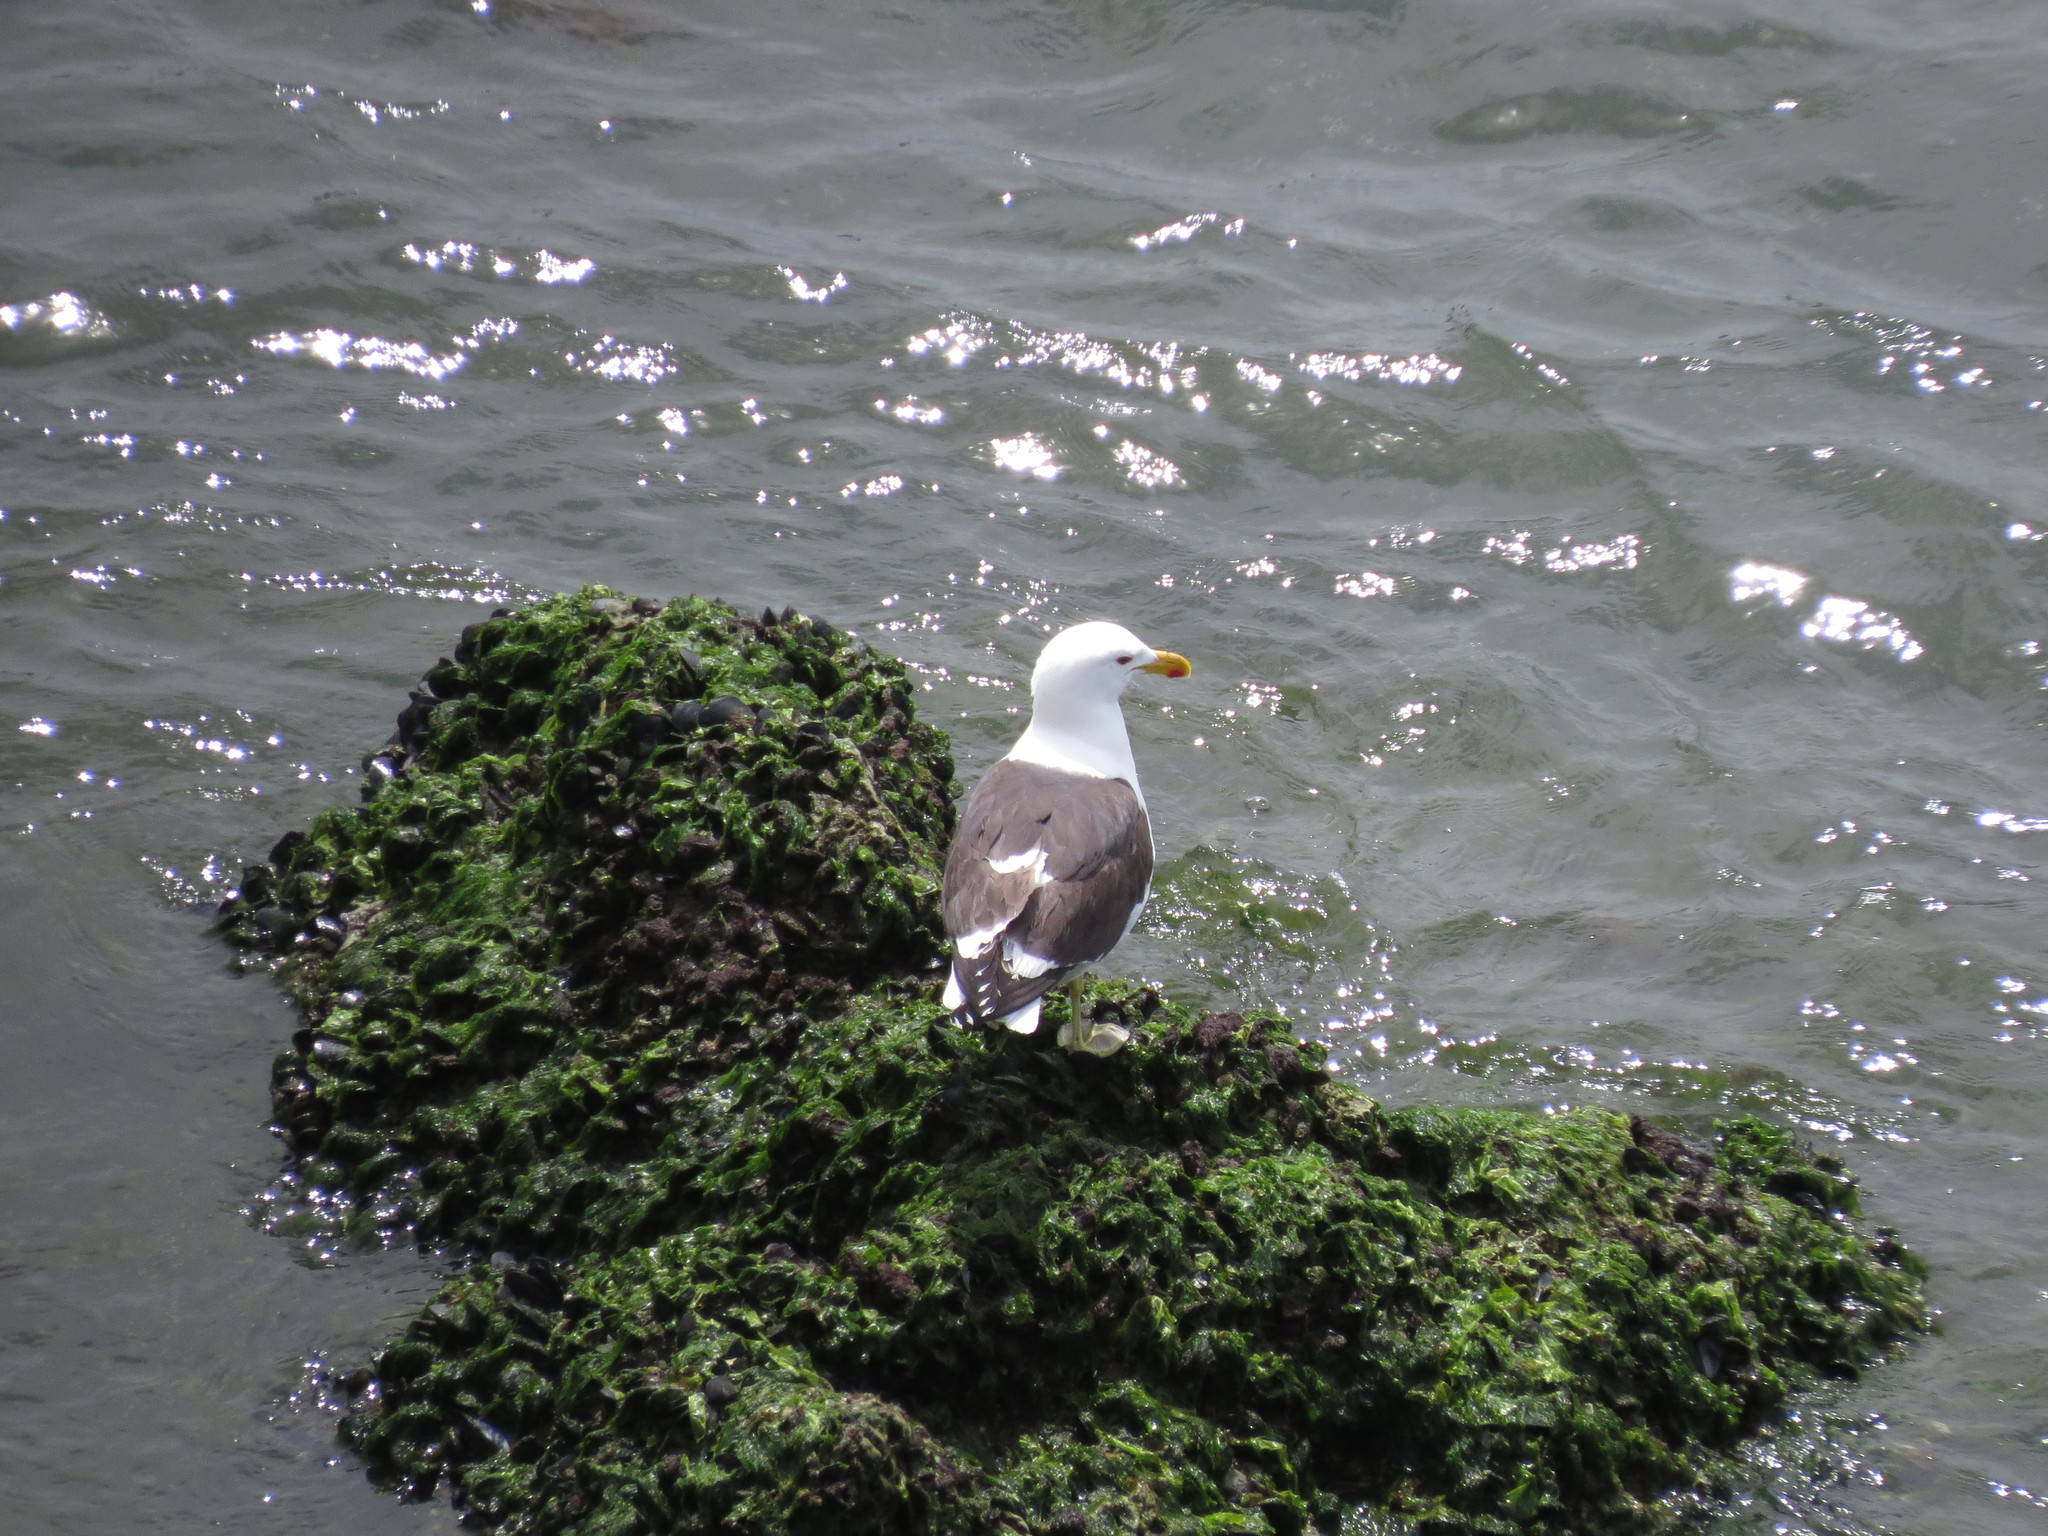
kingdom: Animalia
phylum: Chordata
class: Aves
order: Charadriiformes
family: Laridae
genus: Larus
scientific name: Larus dominicanus
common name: Kelp gull
